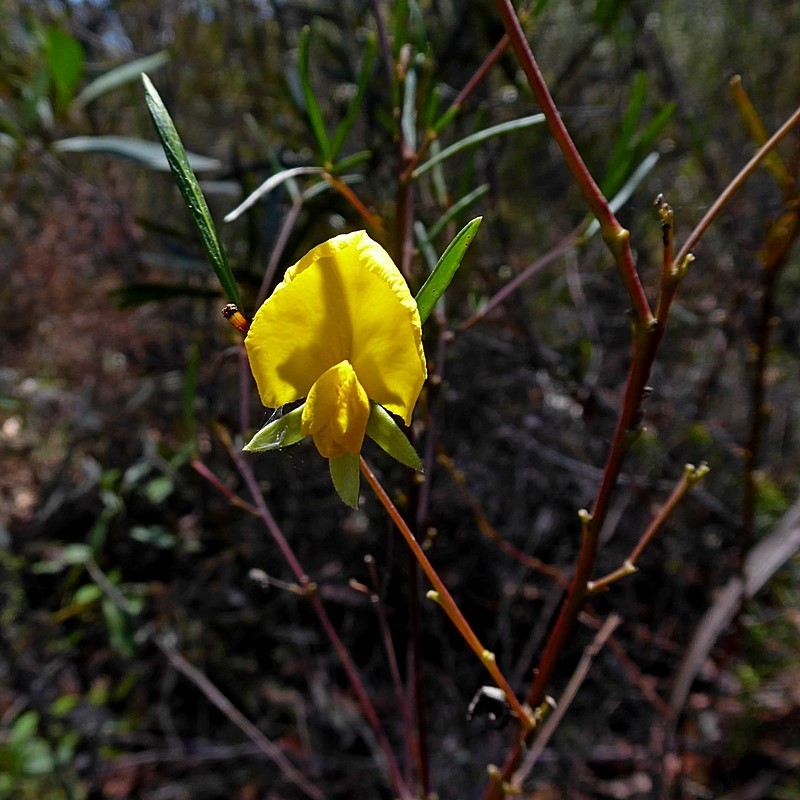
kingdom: Plantae
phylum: Tracheophyta
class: Magnoliopsida
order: Fabales
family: Fabaceae
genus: Gompholobium
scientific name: Gompholobium latifolium
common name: Broadleaf wedge-pea
